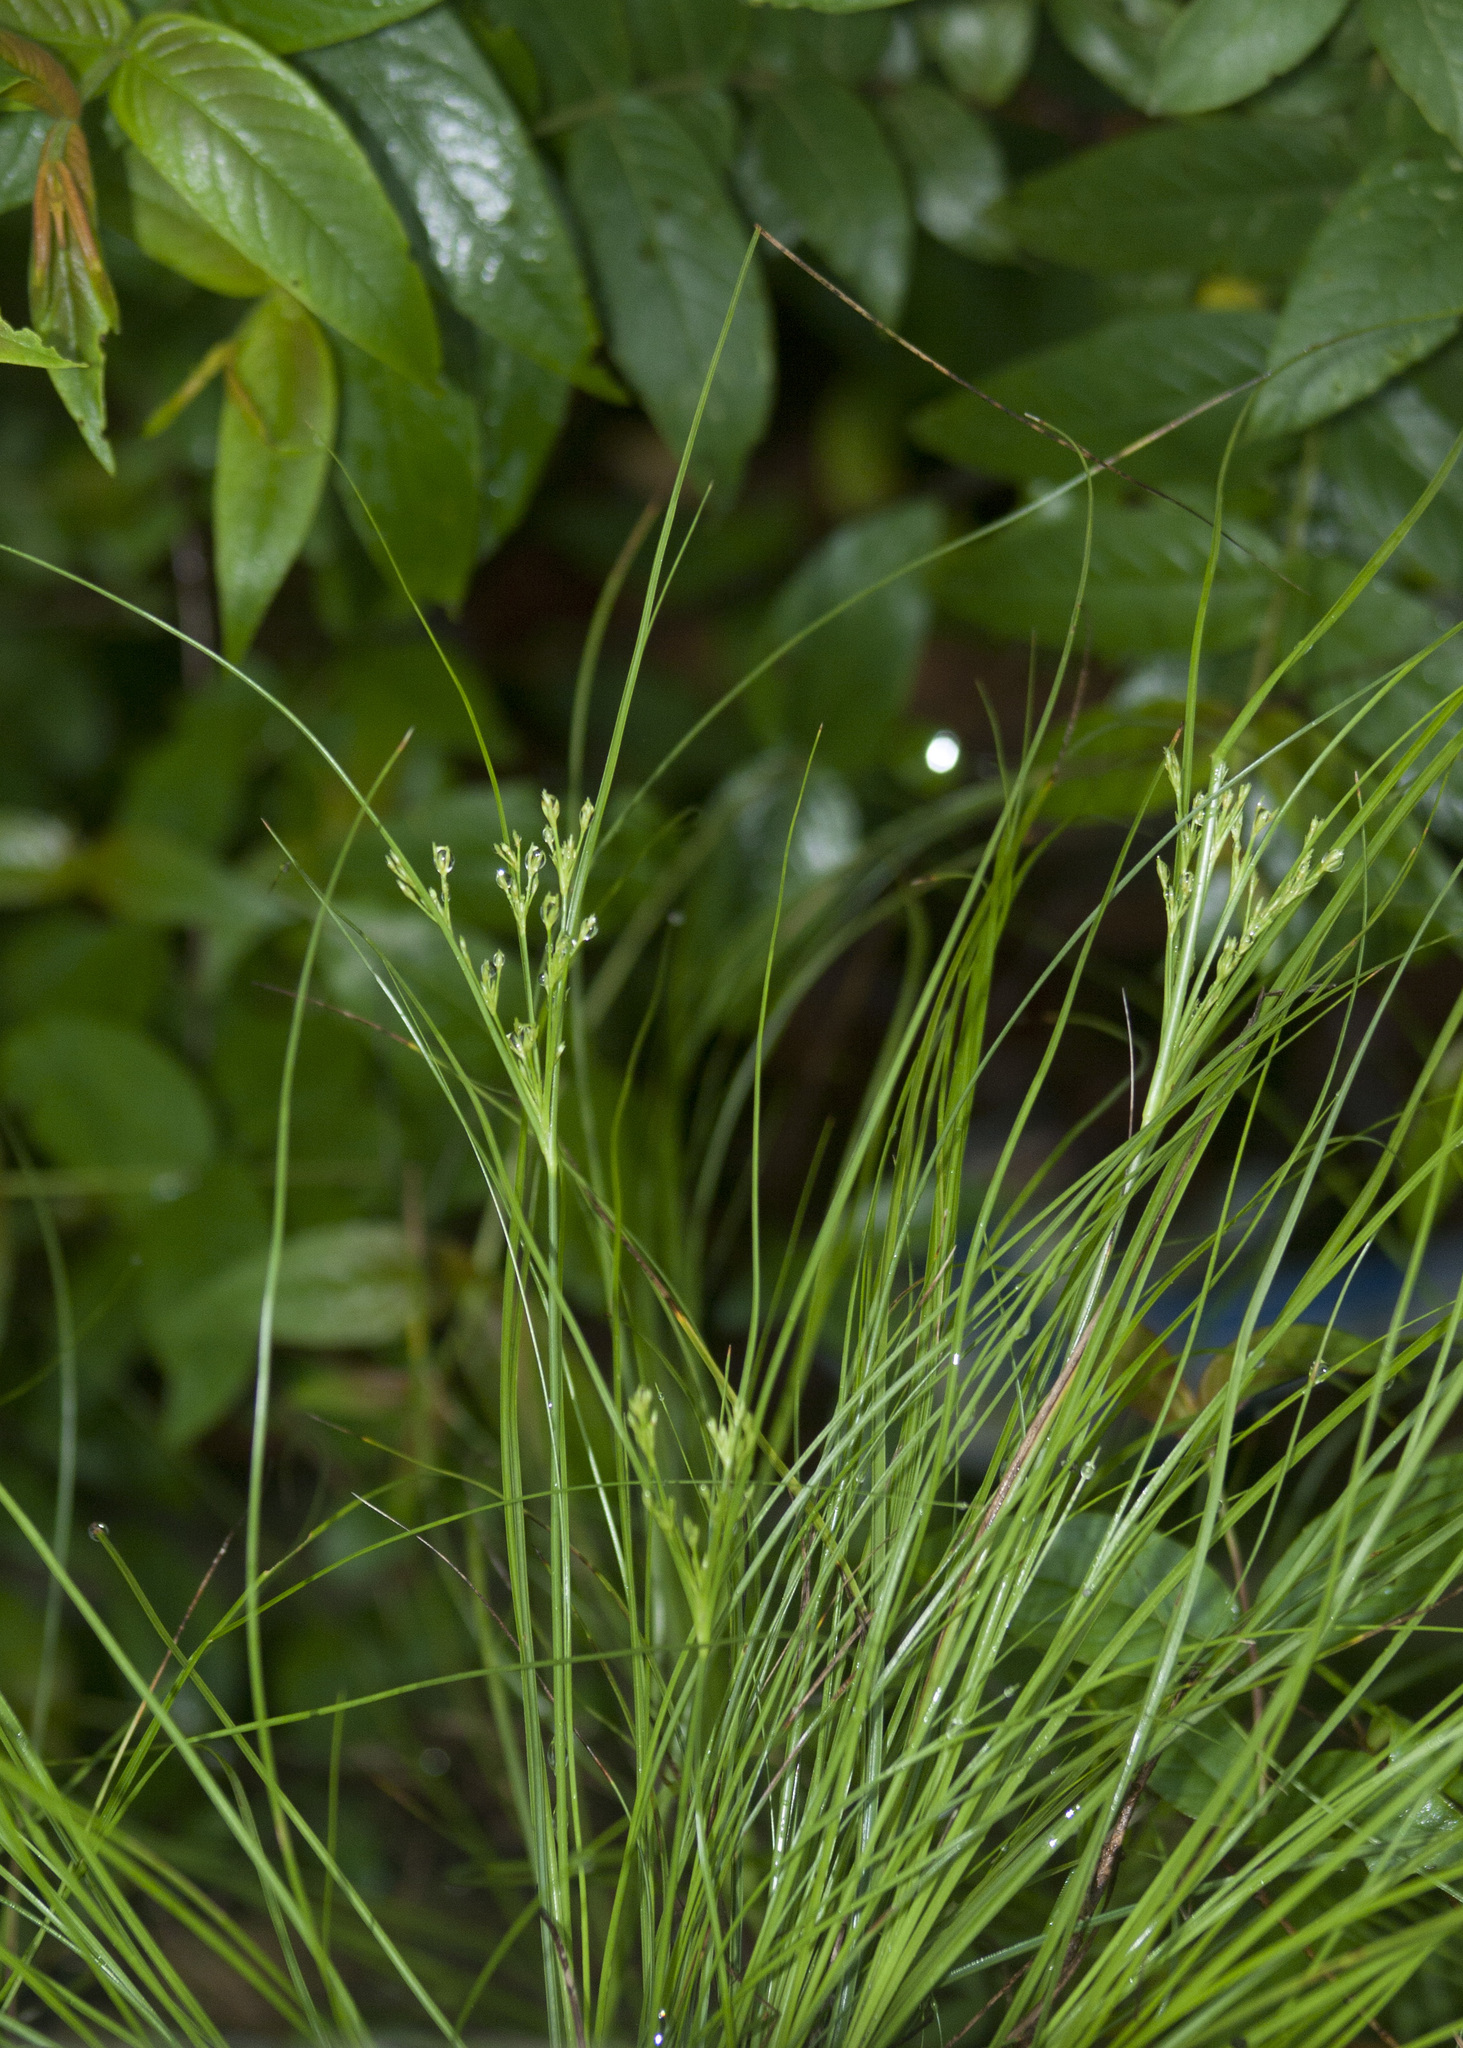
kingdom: Plantae
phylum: Tracheophyta
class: Liliopsida
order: Poales
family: Cyperaceae
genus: Erioscirpus
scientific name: Erioscirpus comosus
